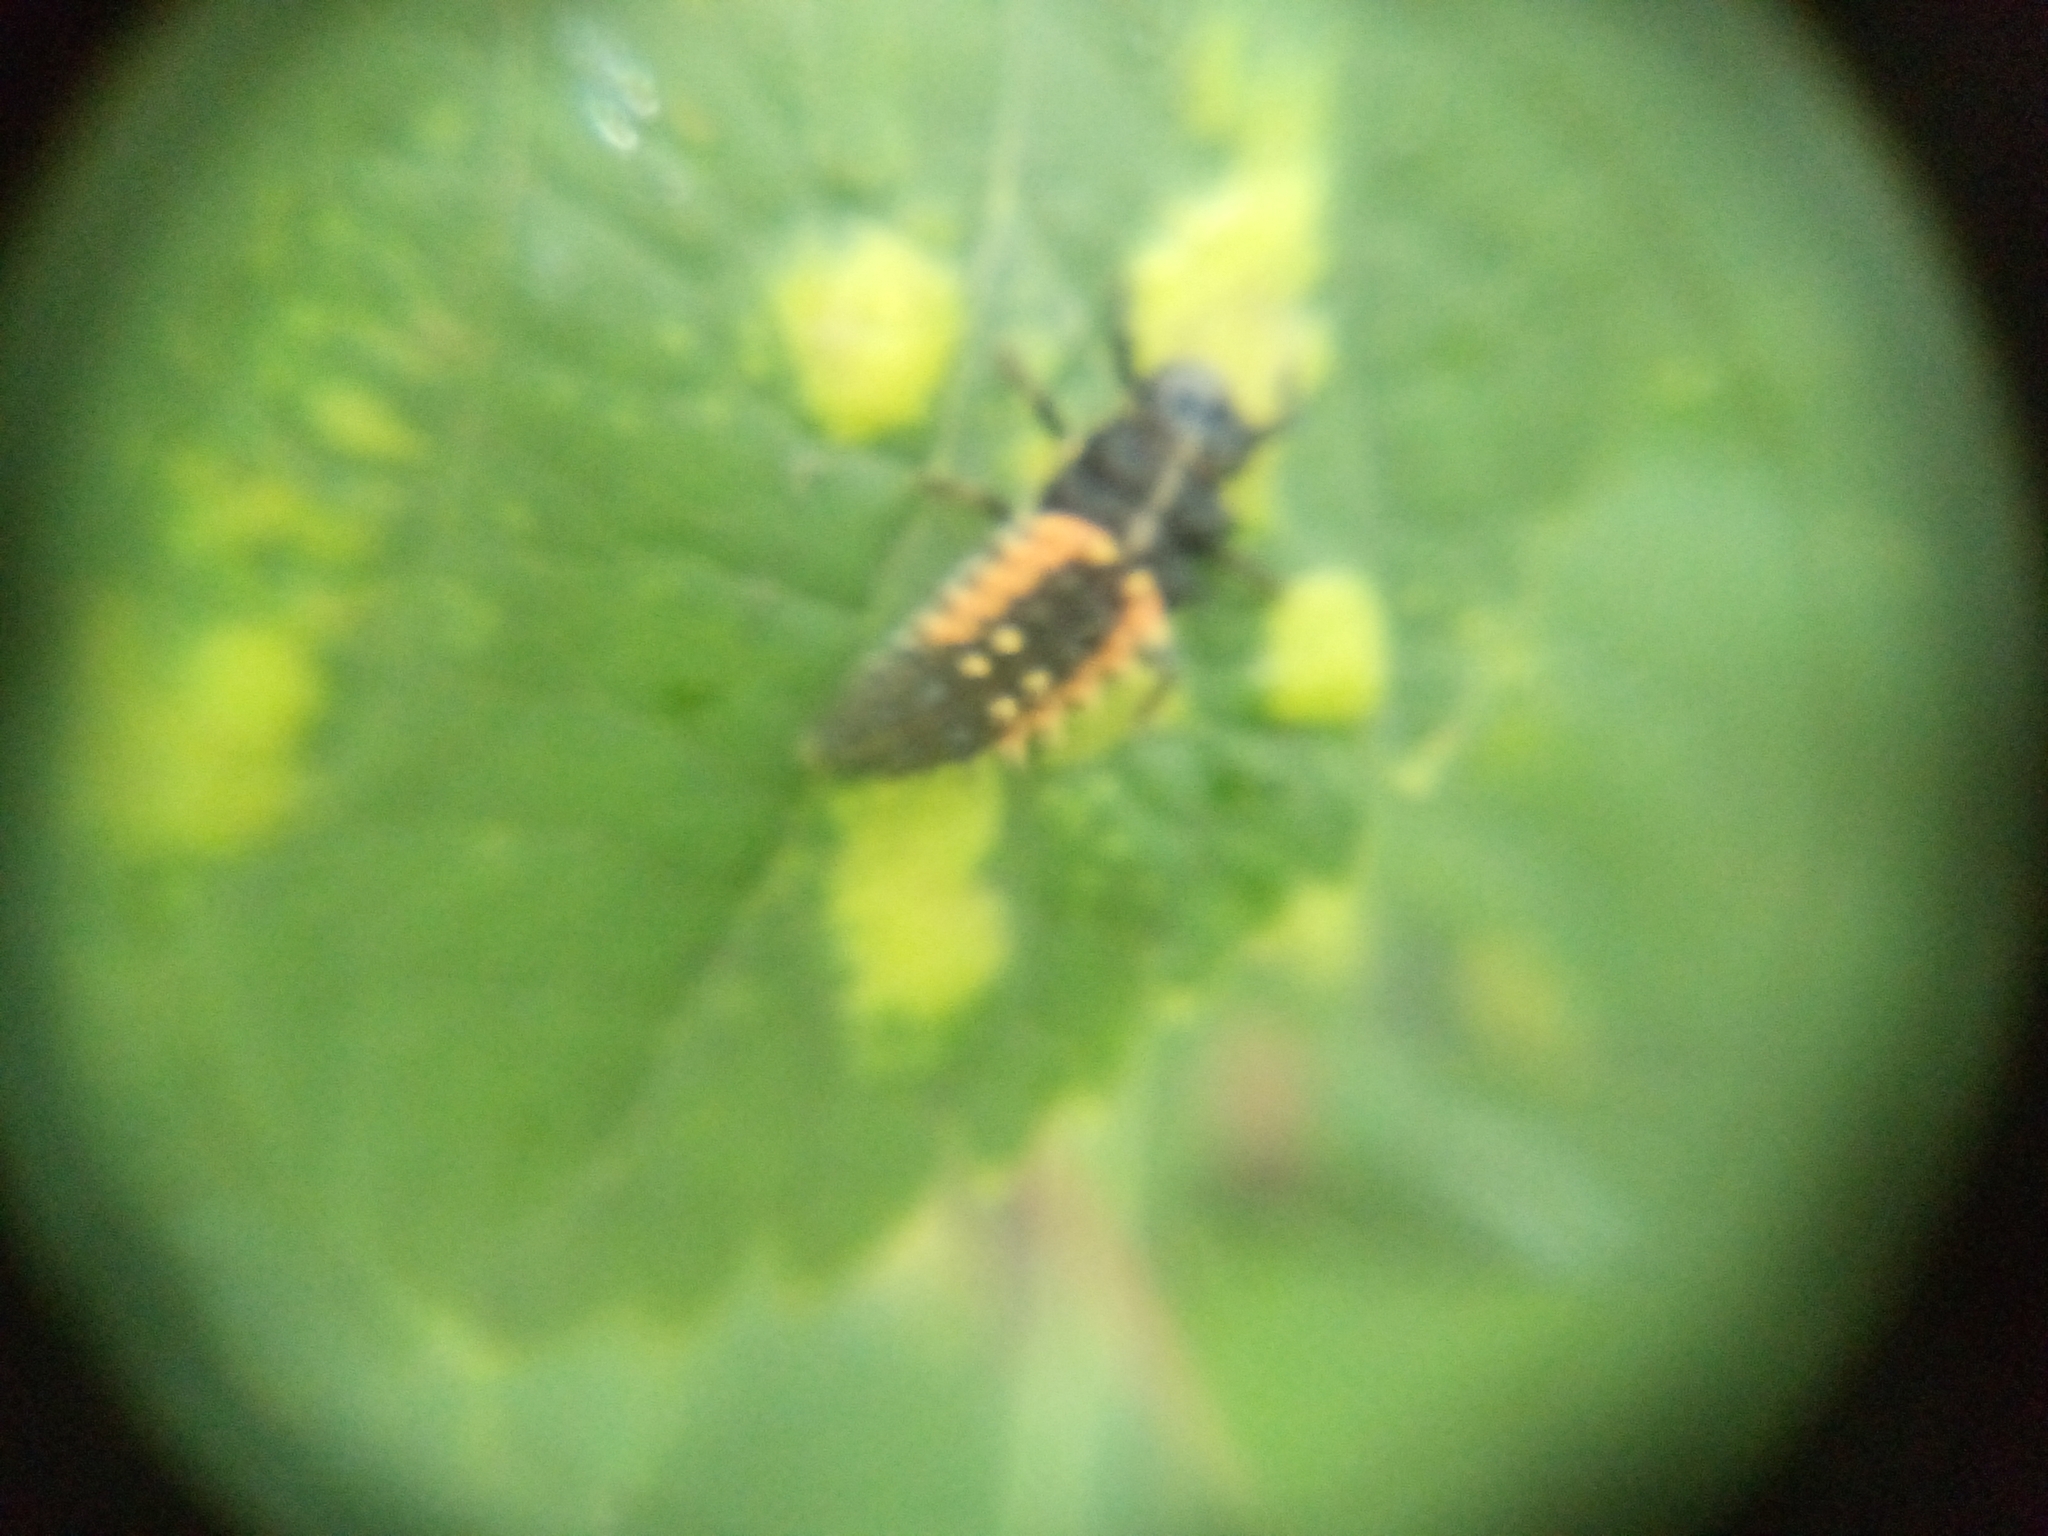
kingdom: Animalia
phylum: Arthropoda
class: Insecta
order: Coleoptera
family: Coccinellidae
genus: Harmonia
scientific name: Harmonia axyridis
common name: Harlequin ladybird
